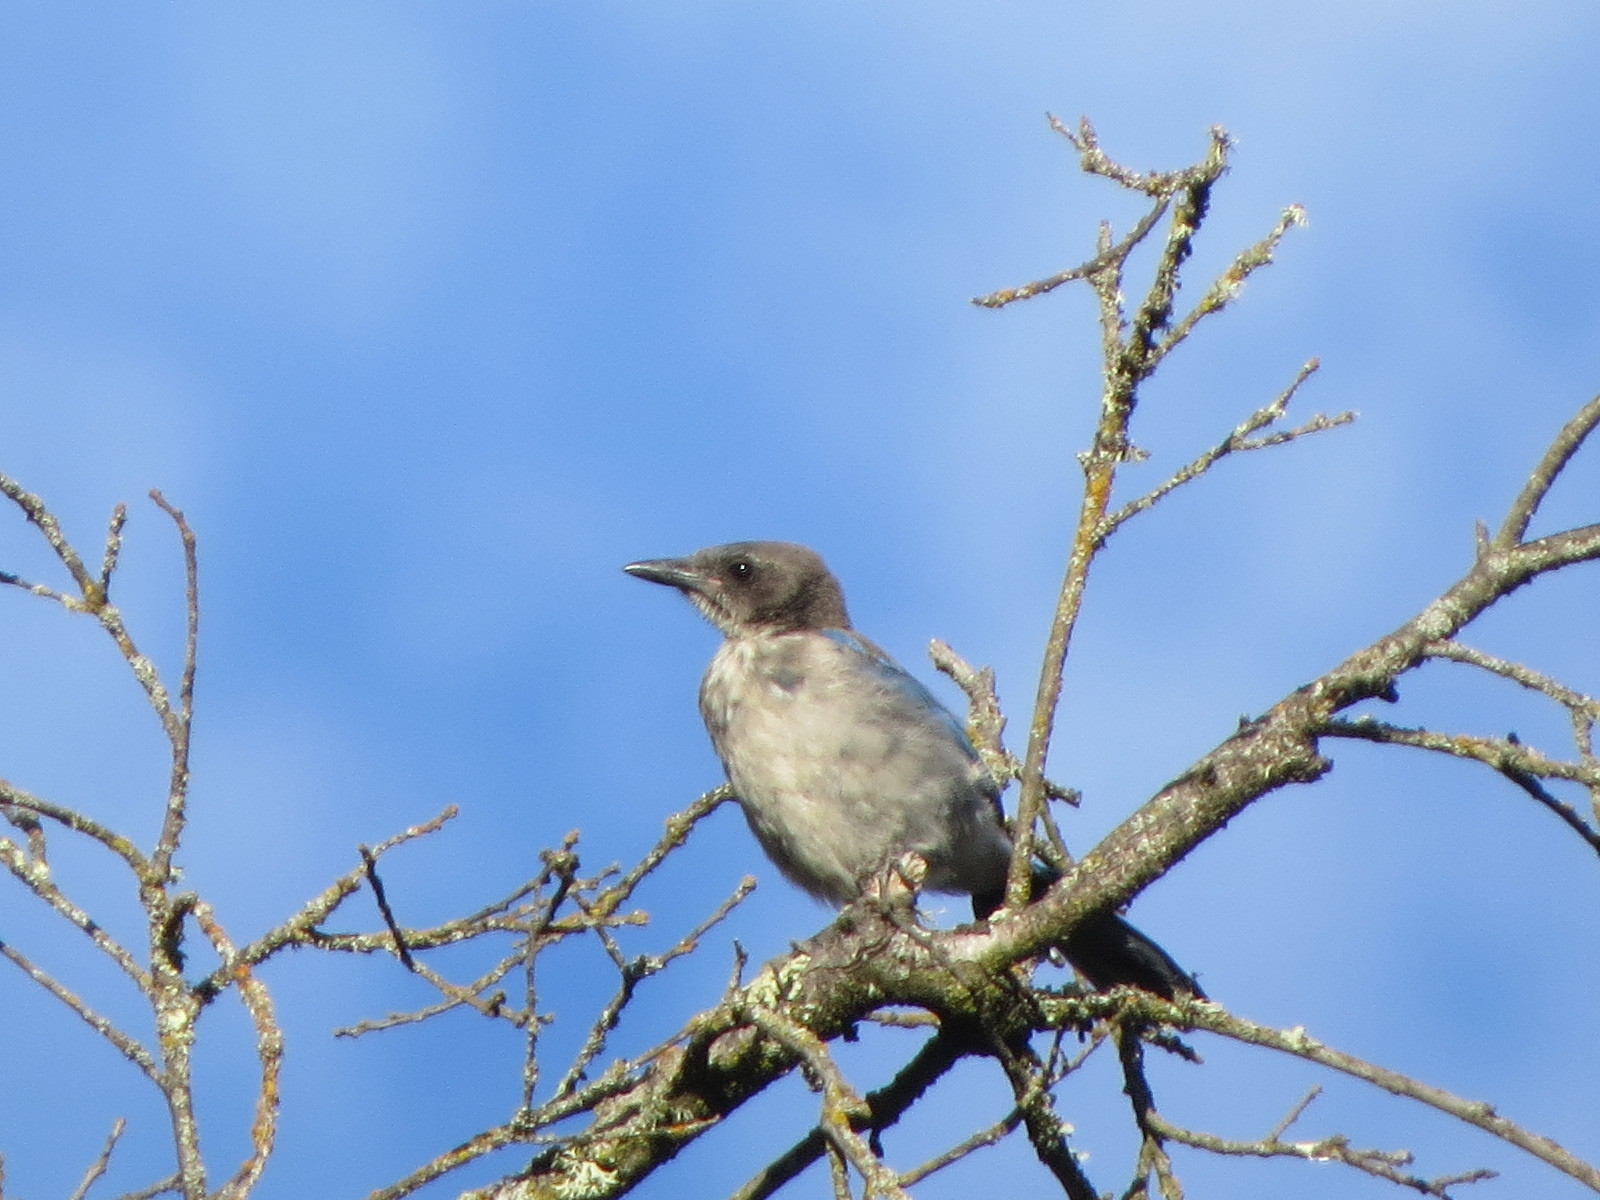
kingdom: Animalia
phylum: Chordata
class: Aves
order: Passeriformes
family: Corvidae
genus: Aphelocoma
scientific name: Aphelocoma californica
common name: California scrub-jay
